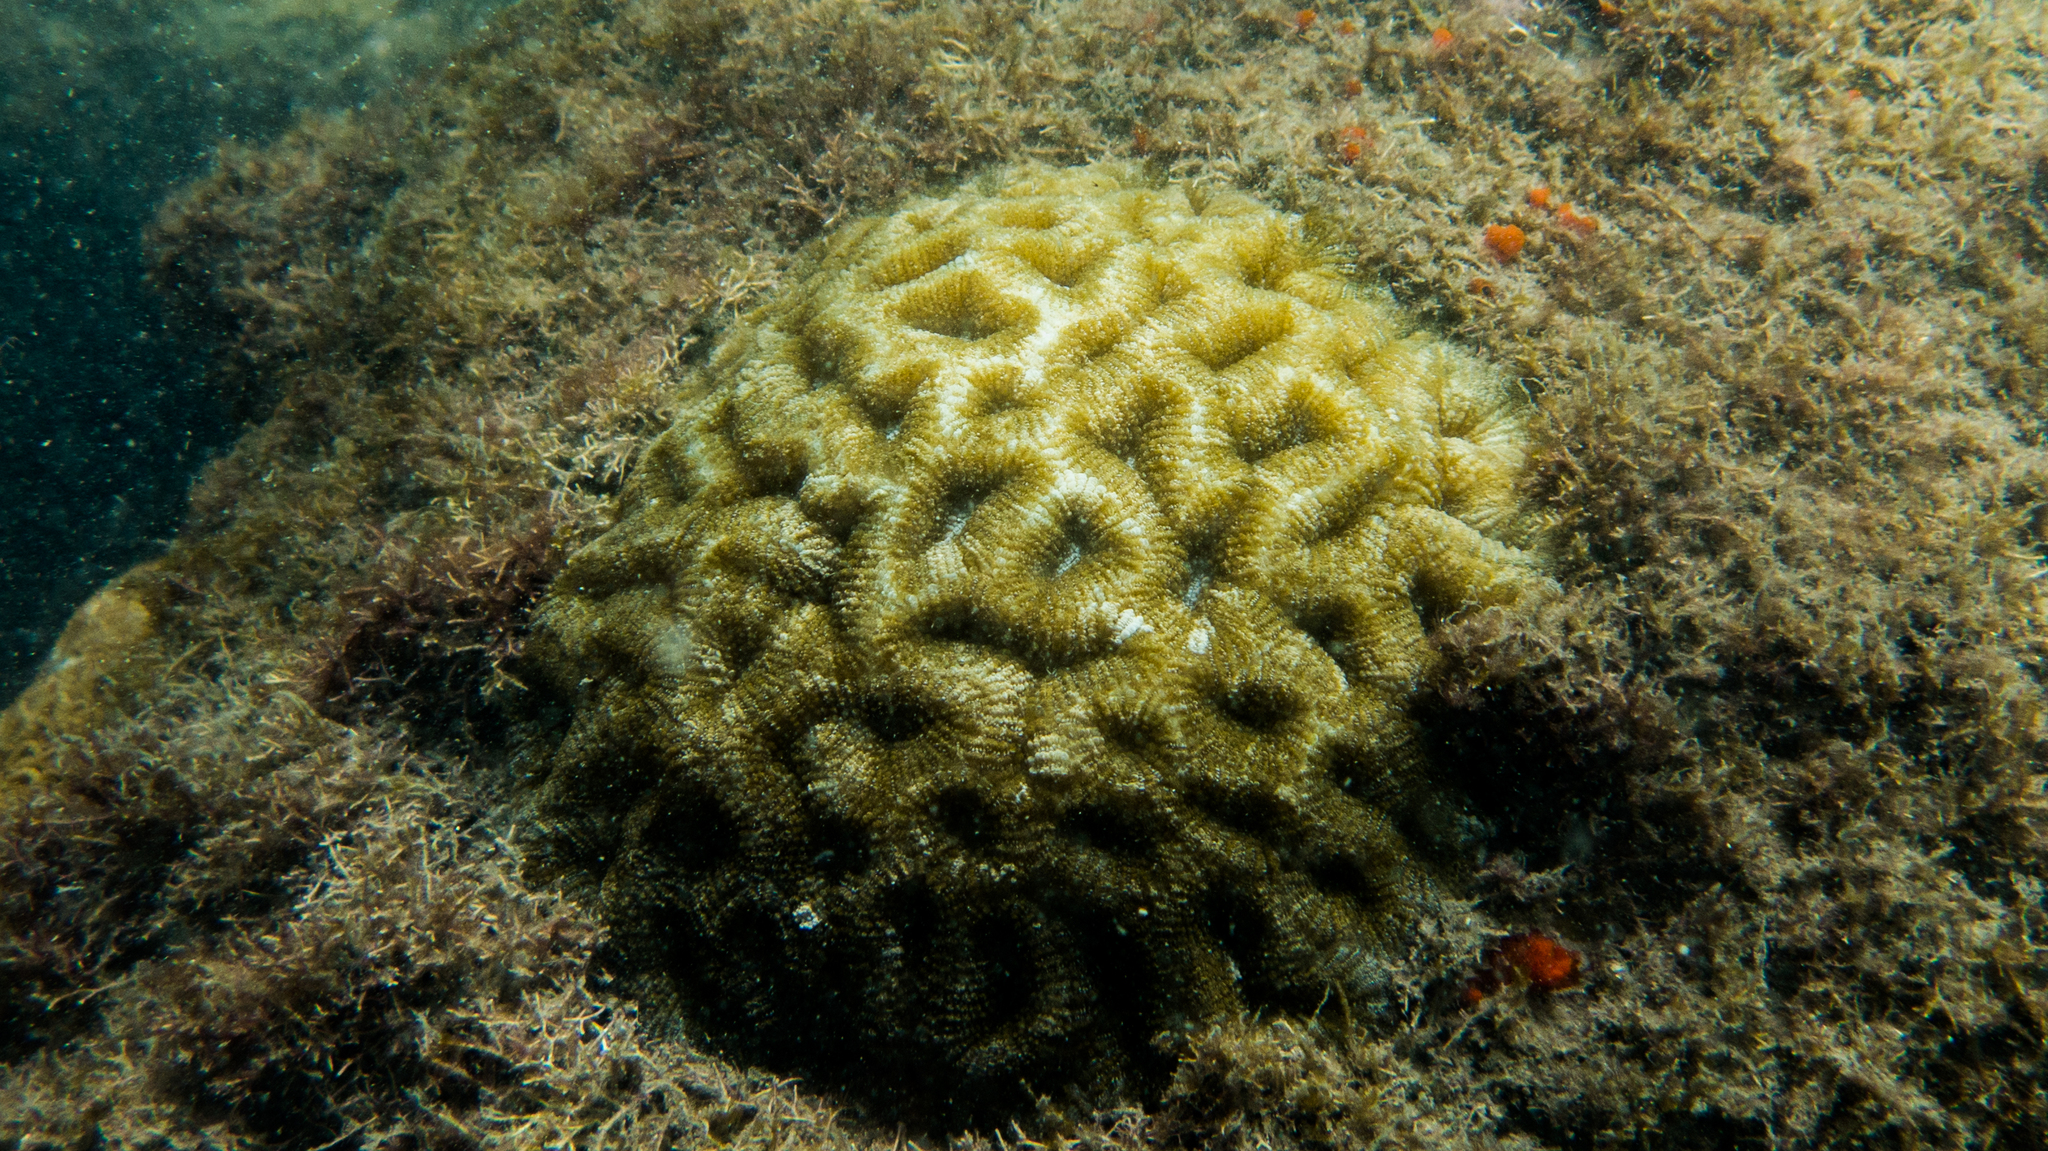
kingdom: Animalia
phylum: Cnidaria
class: Anthozoa
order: Scleractinia
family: Faviidae
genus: Mussismilia
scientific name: Mussismilia hispida
